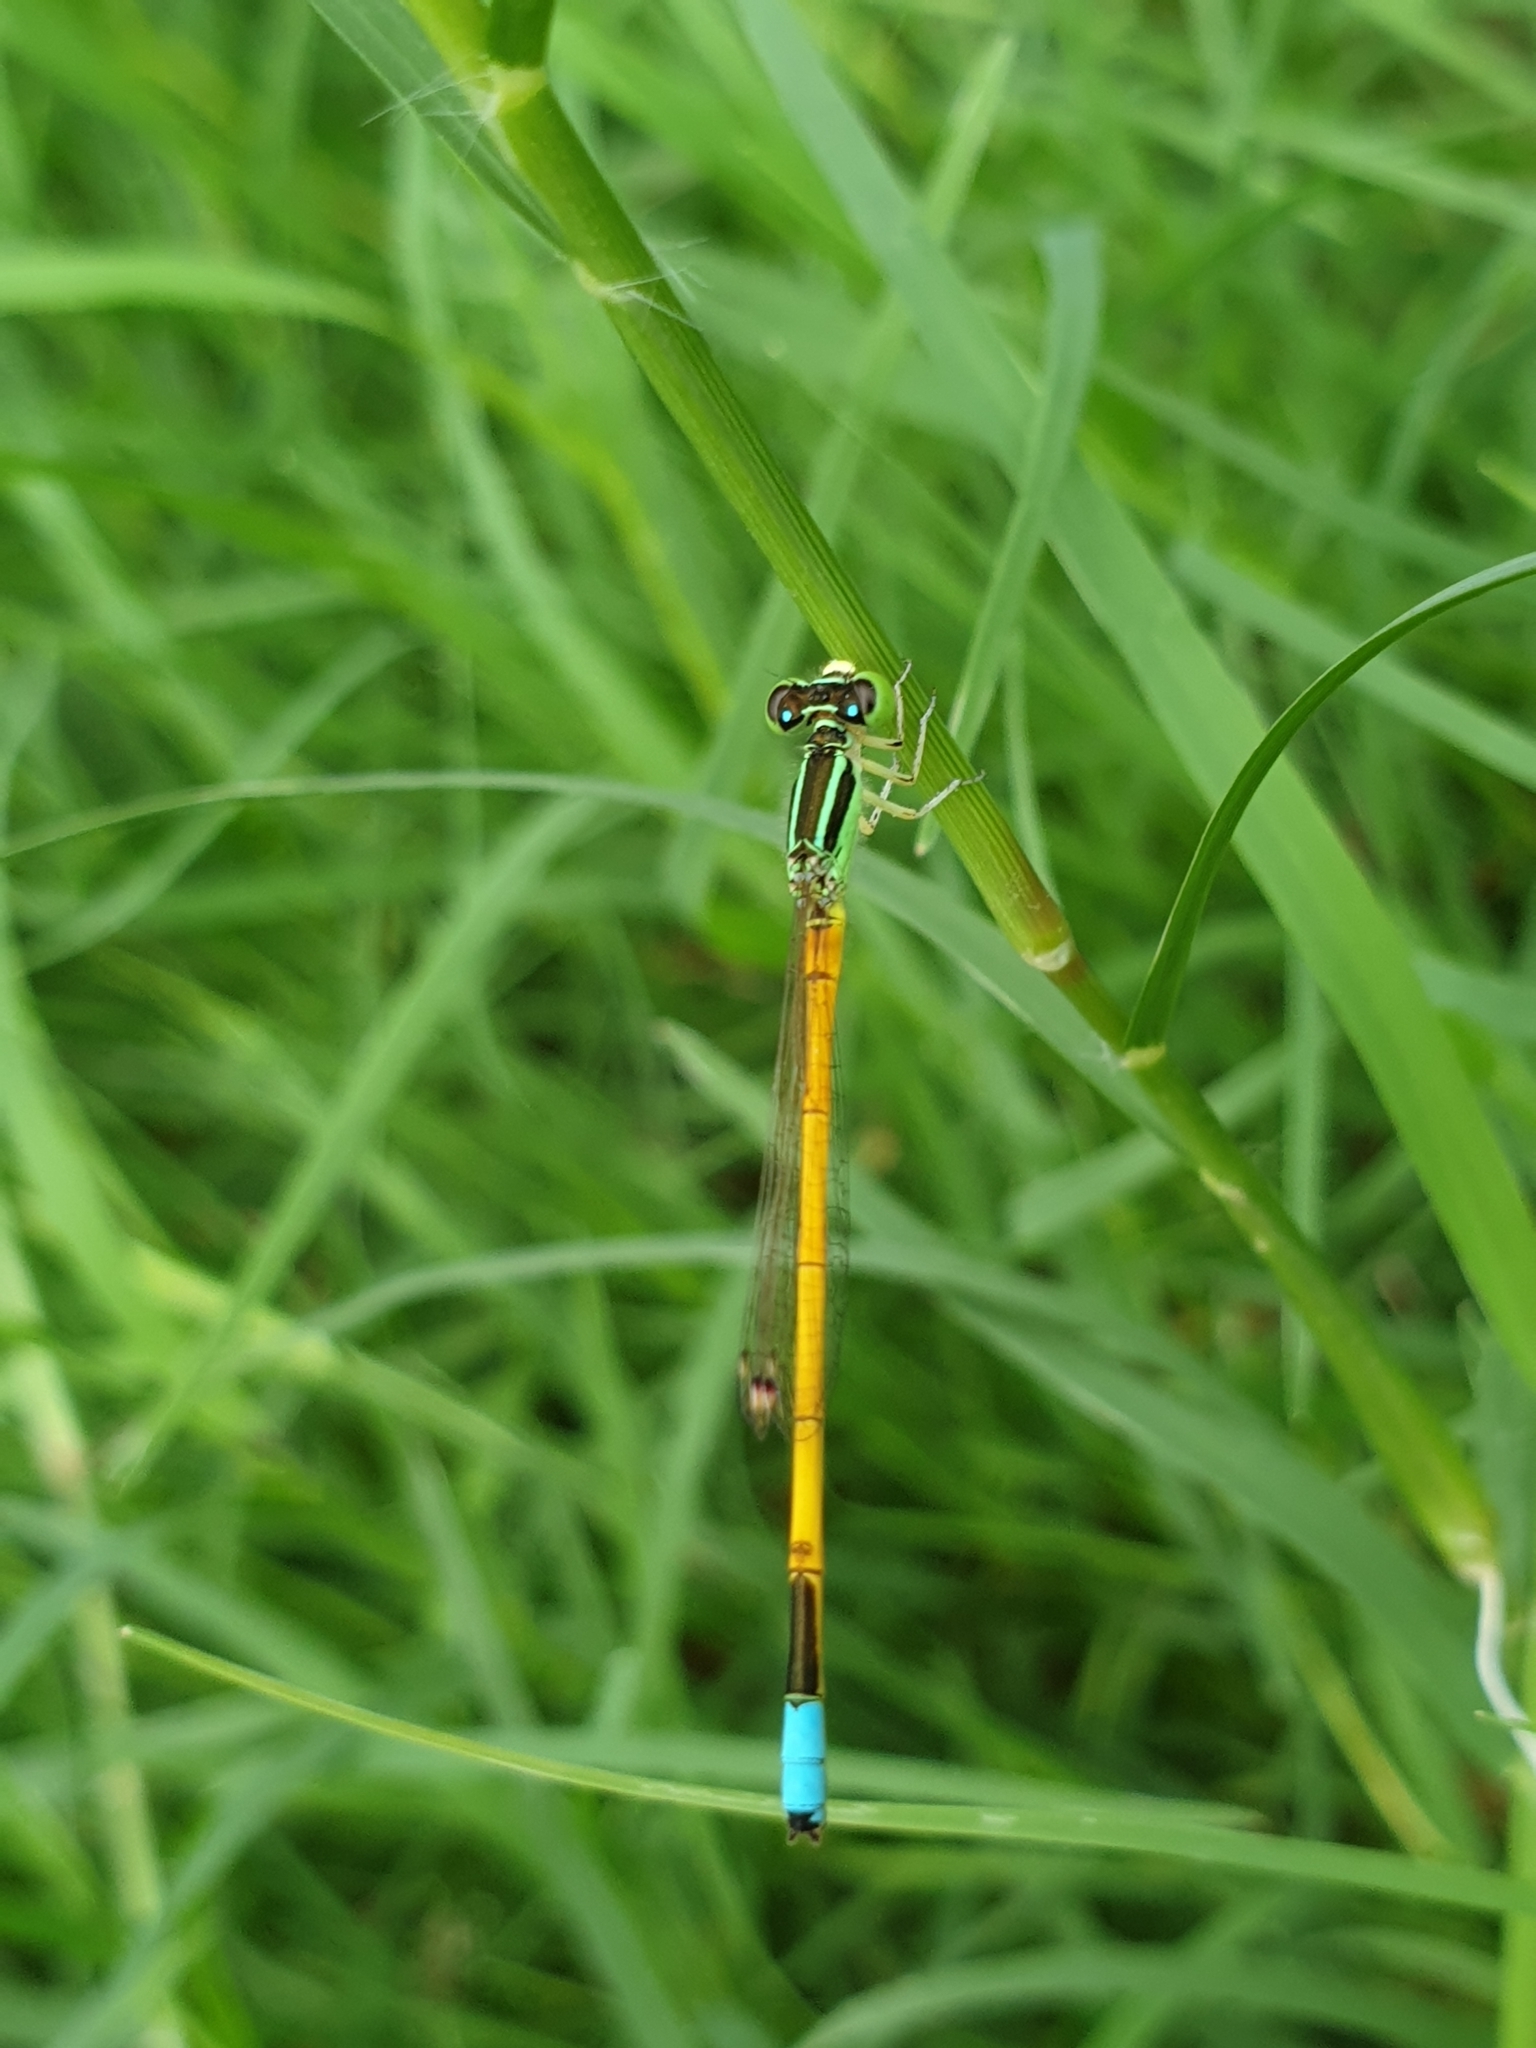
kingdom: Animalia
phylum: Arthropoda
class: Insecta
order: Odonata
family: Coenagrionidae
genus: Ischnura
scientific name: Ischnura rubilio
